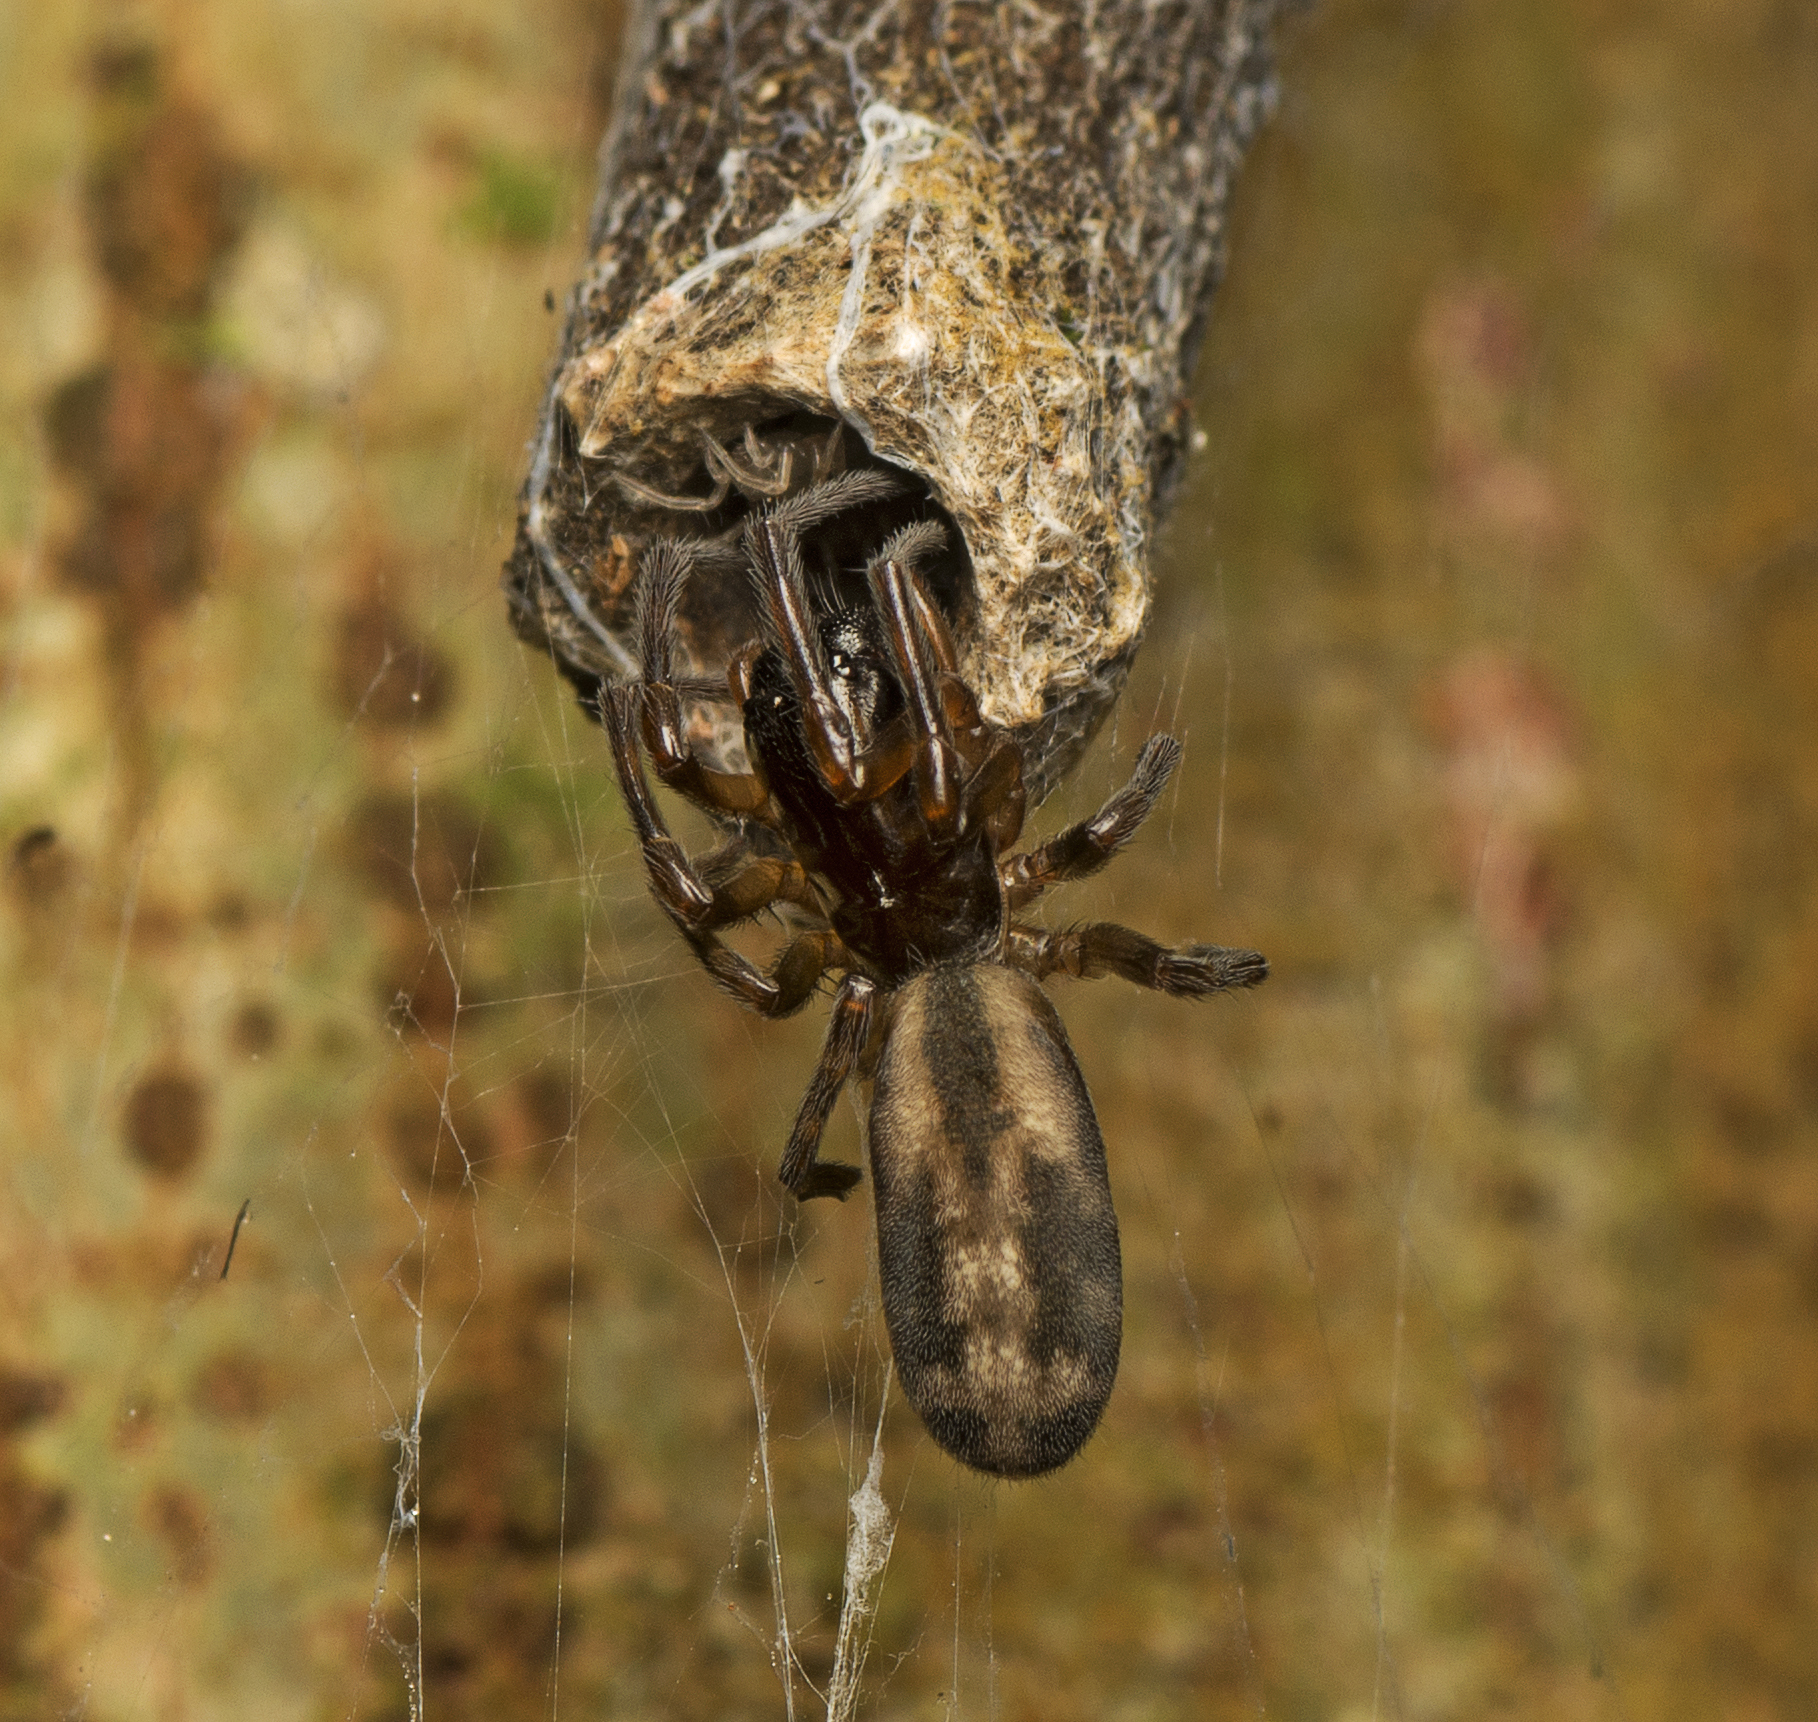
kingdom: Animalia
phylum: Arthropoda
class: Arachnida
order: Araneae
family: Desidae
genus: Paramatachia
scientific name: Paramatachia decorata
